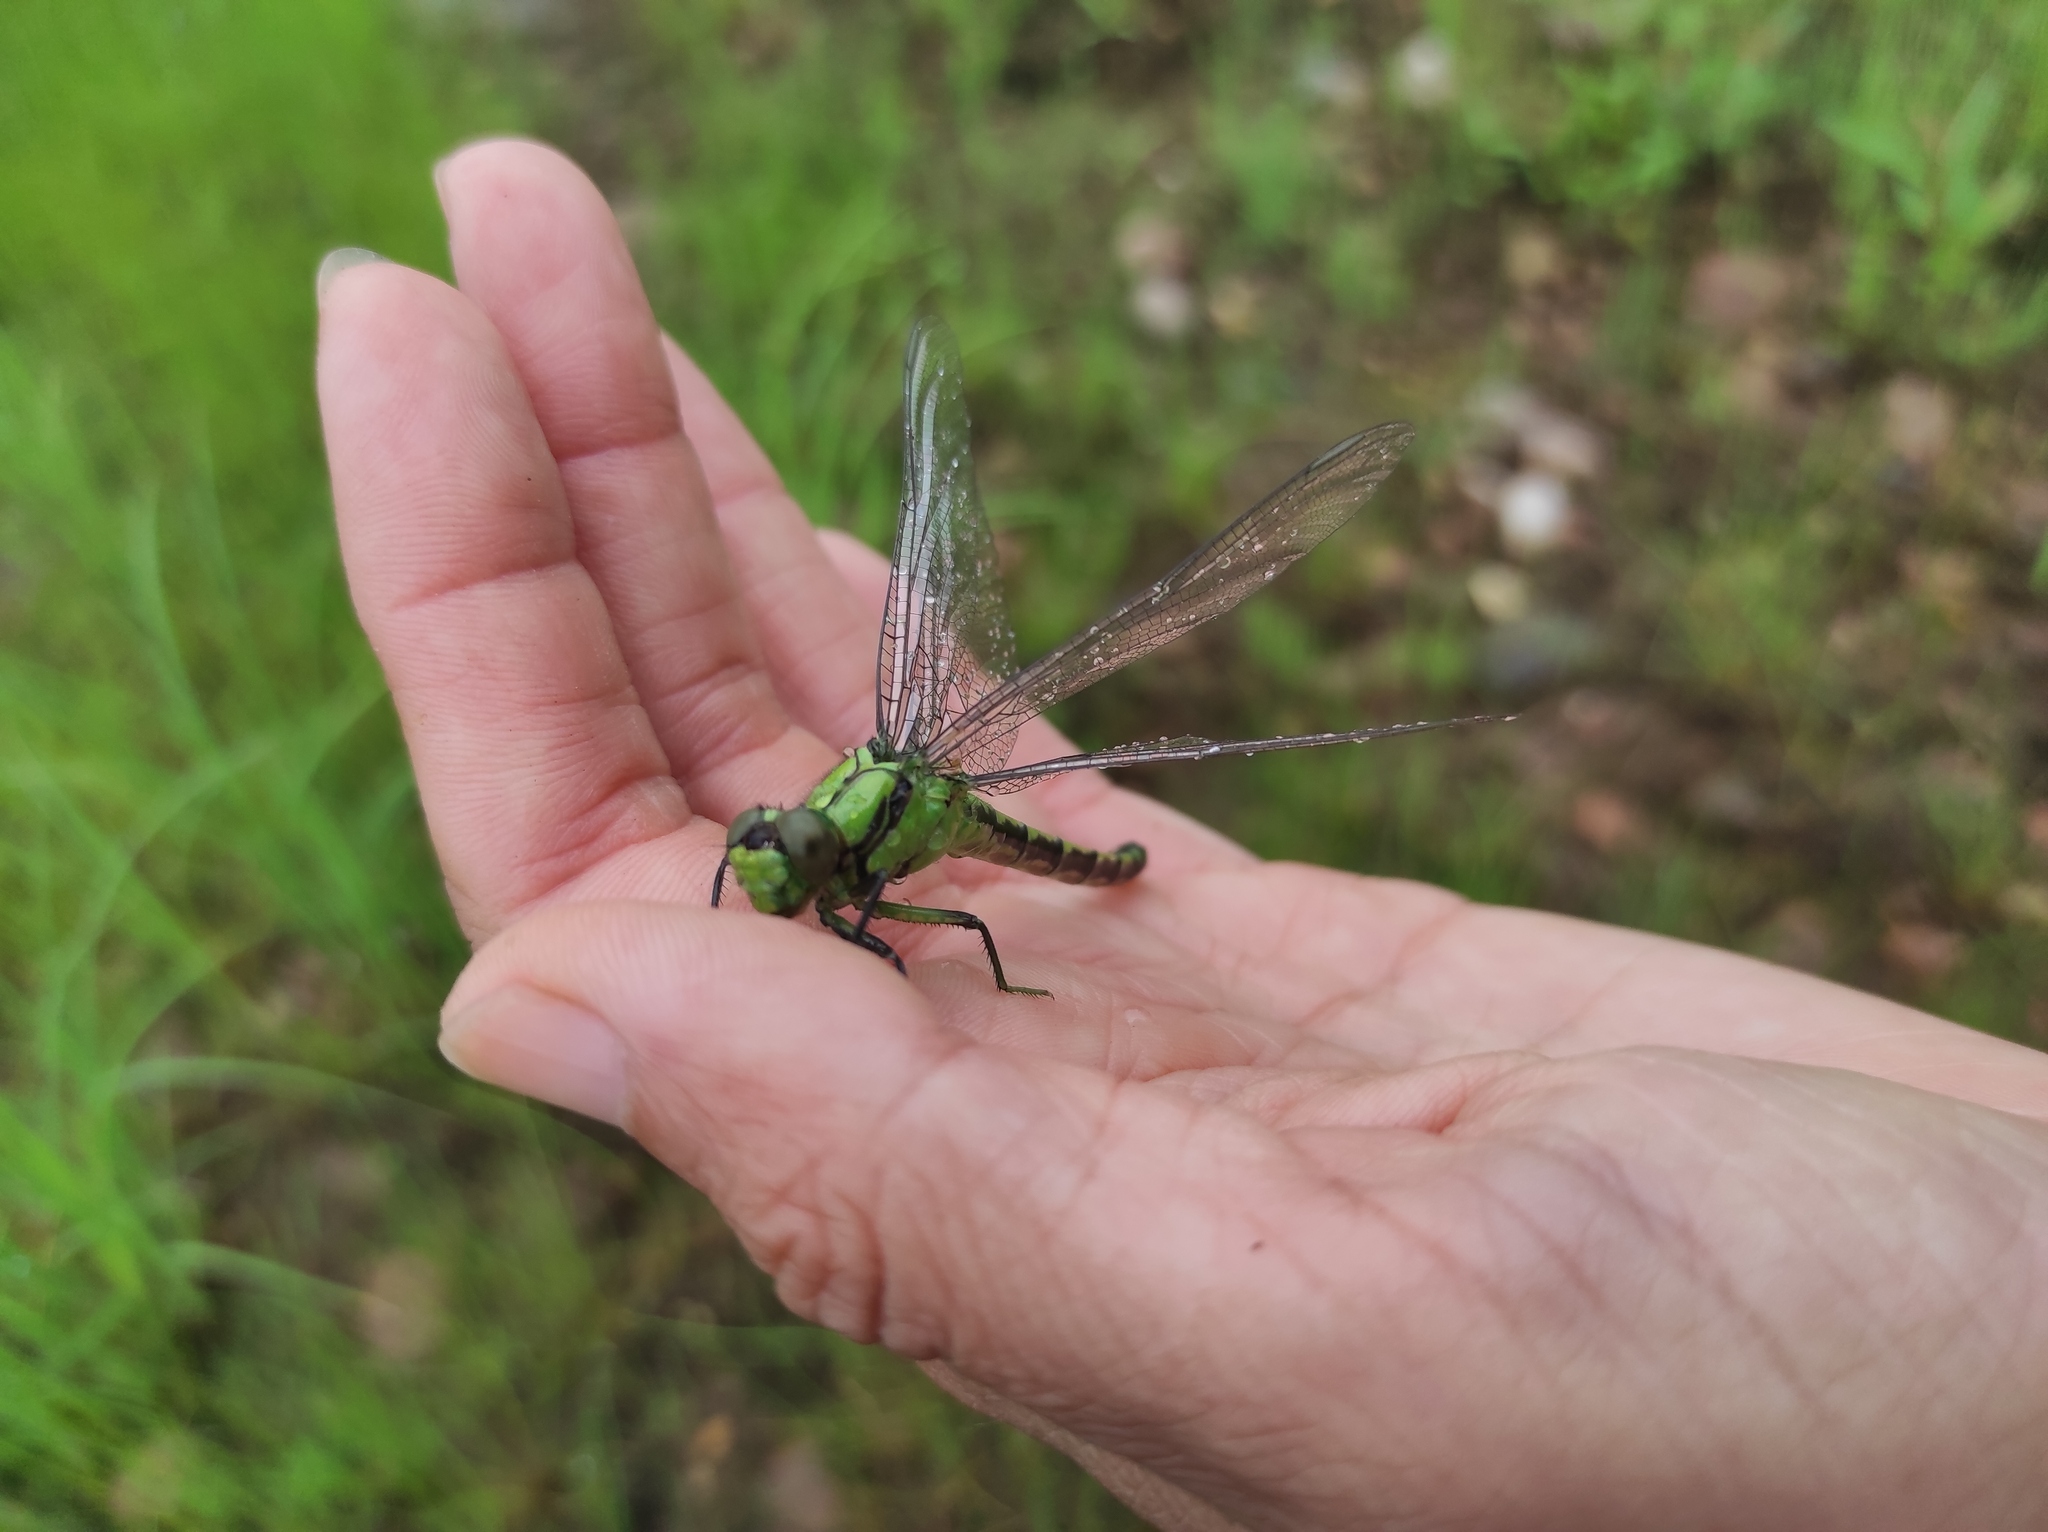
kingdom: Animalia
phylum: Arthropoda
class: Insecta
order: Odonata
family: Gomphidae
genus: Ophiogomphus
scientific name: Ophiogomphus obscurus
